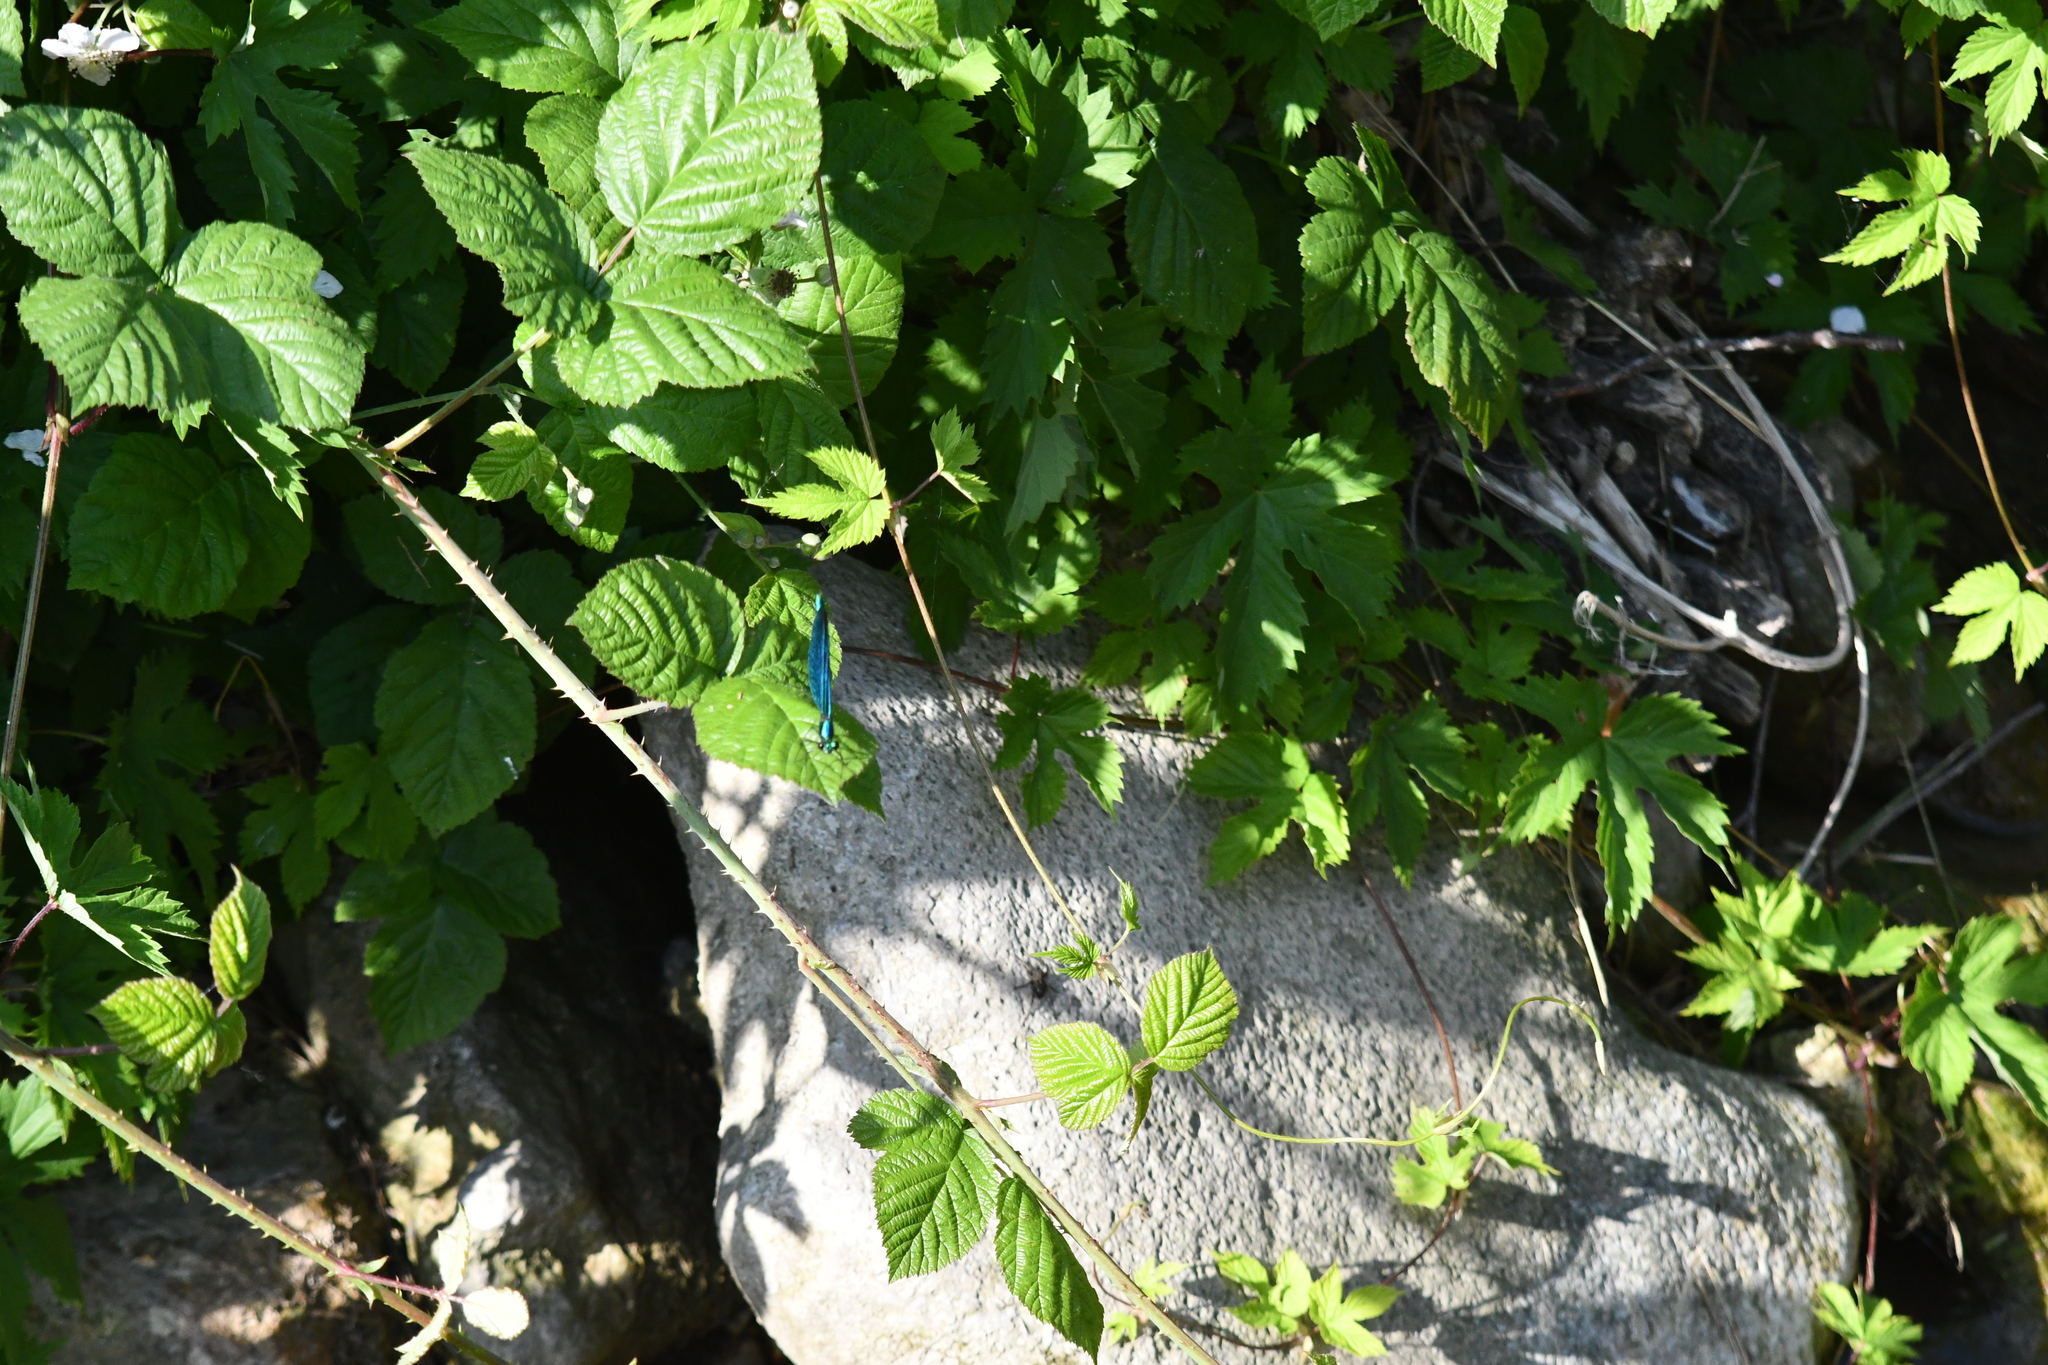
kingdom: Animalia
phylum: Arthropoda
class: Insecta
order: Odonata
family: Calopterygidae
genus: Calopteryx
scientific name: Calopteryx virgo
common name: Beautiful demoiselle
